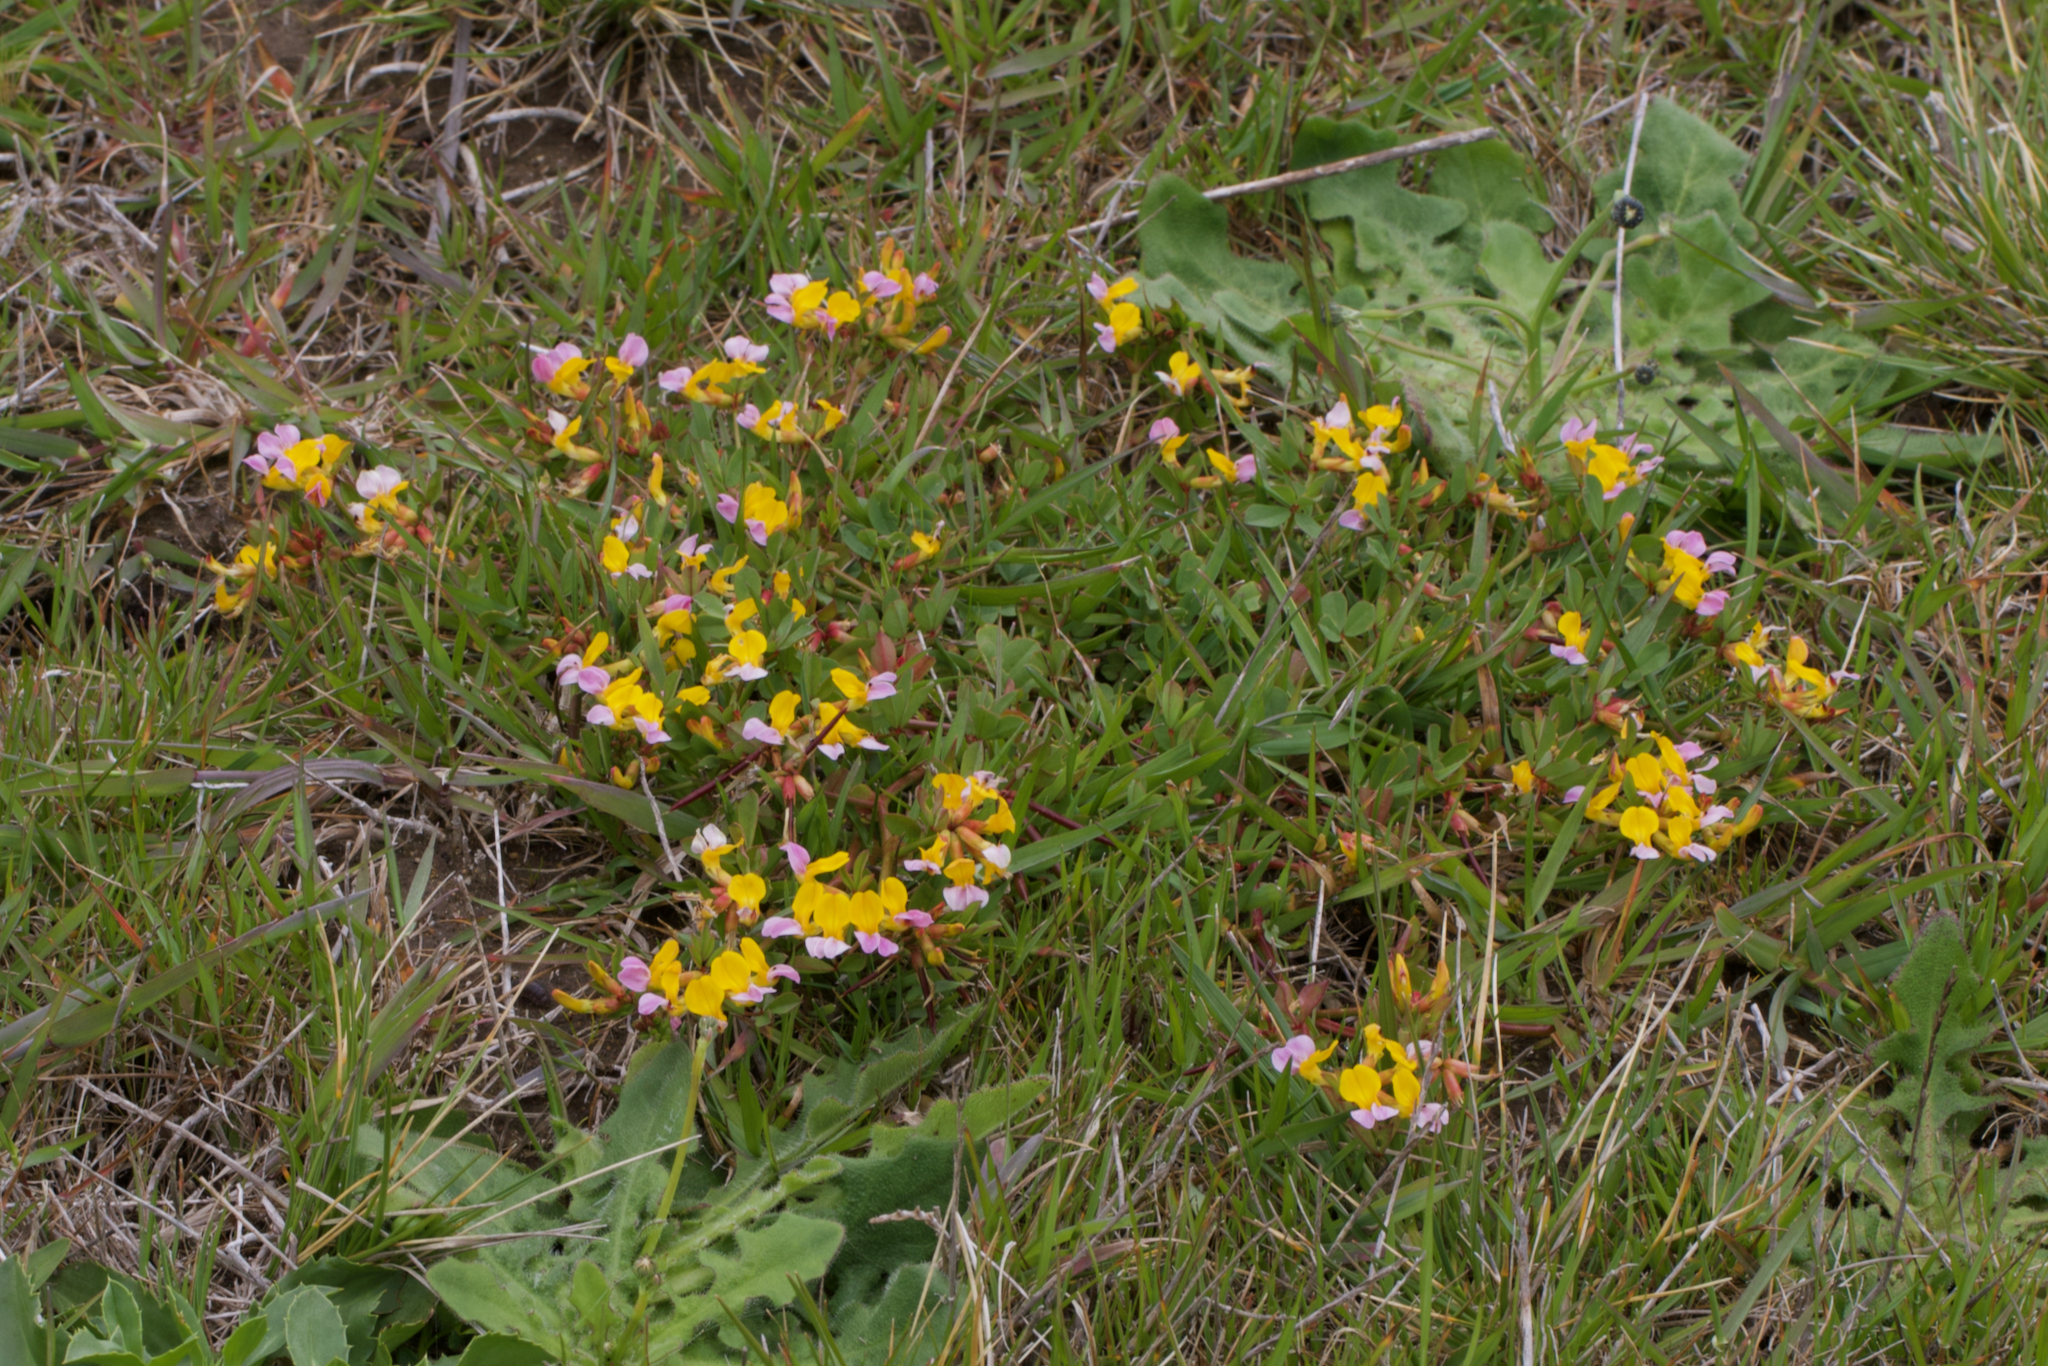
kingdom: Plantae
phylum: Tracheophyta
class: Magnoliopsida
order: Fabales
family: Fabaceae
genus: Hosackia
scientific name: Hosackia gracilis
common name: Seaside bird's-foot lotus
